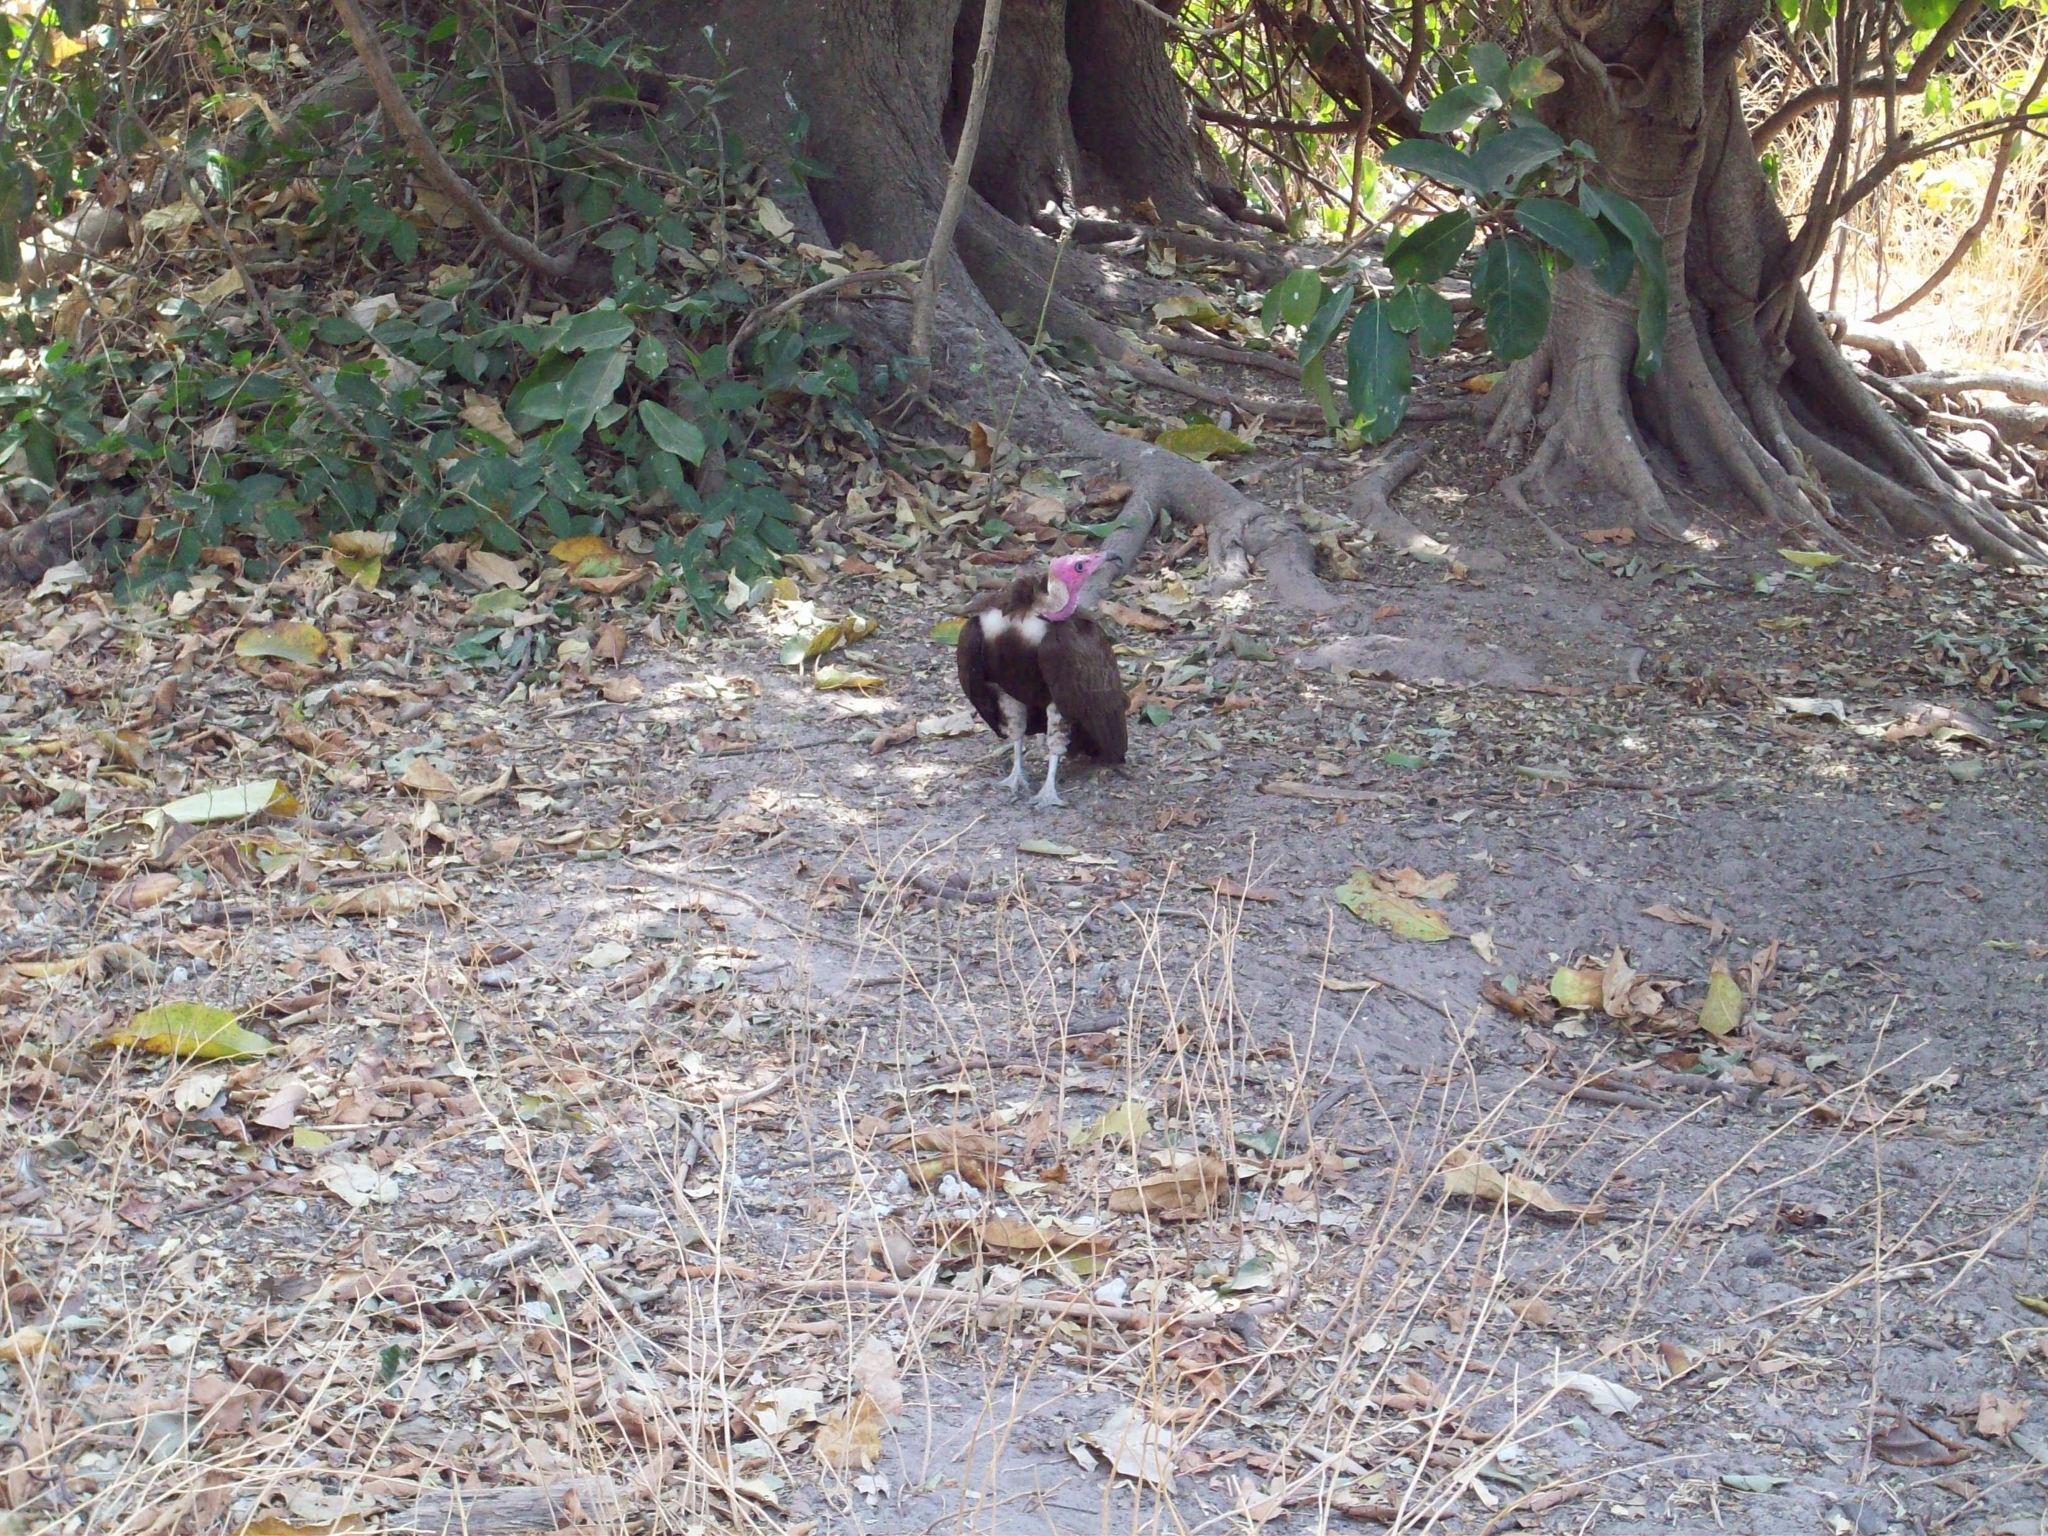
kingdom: Animalia
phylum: Chordata
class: Aves
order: Accipitriformes
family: Accipitridae
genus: Necrosyrtes
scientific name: Necrosyrtes monachus
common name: Hooded vulture
